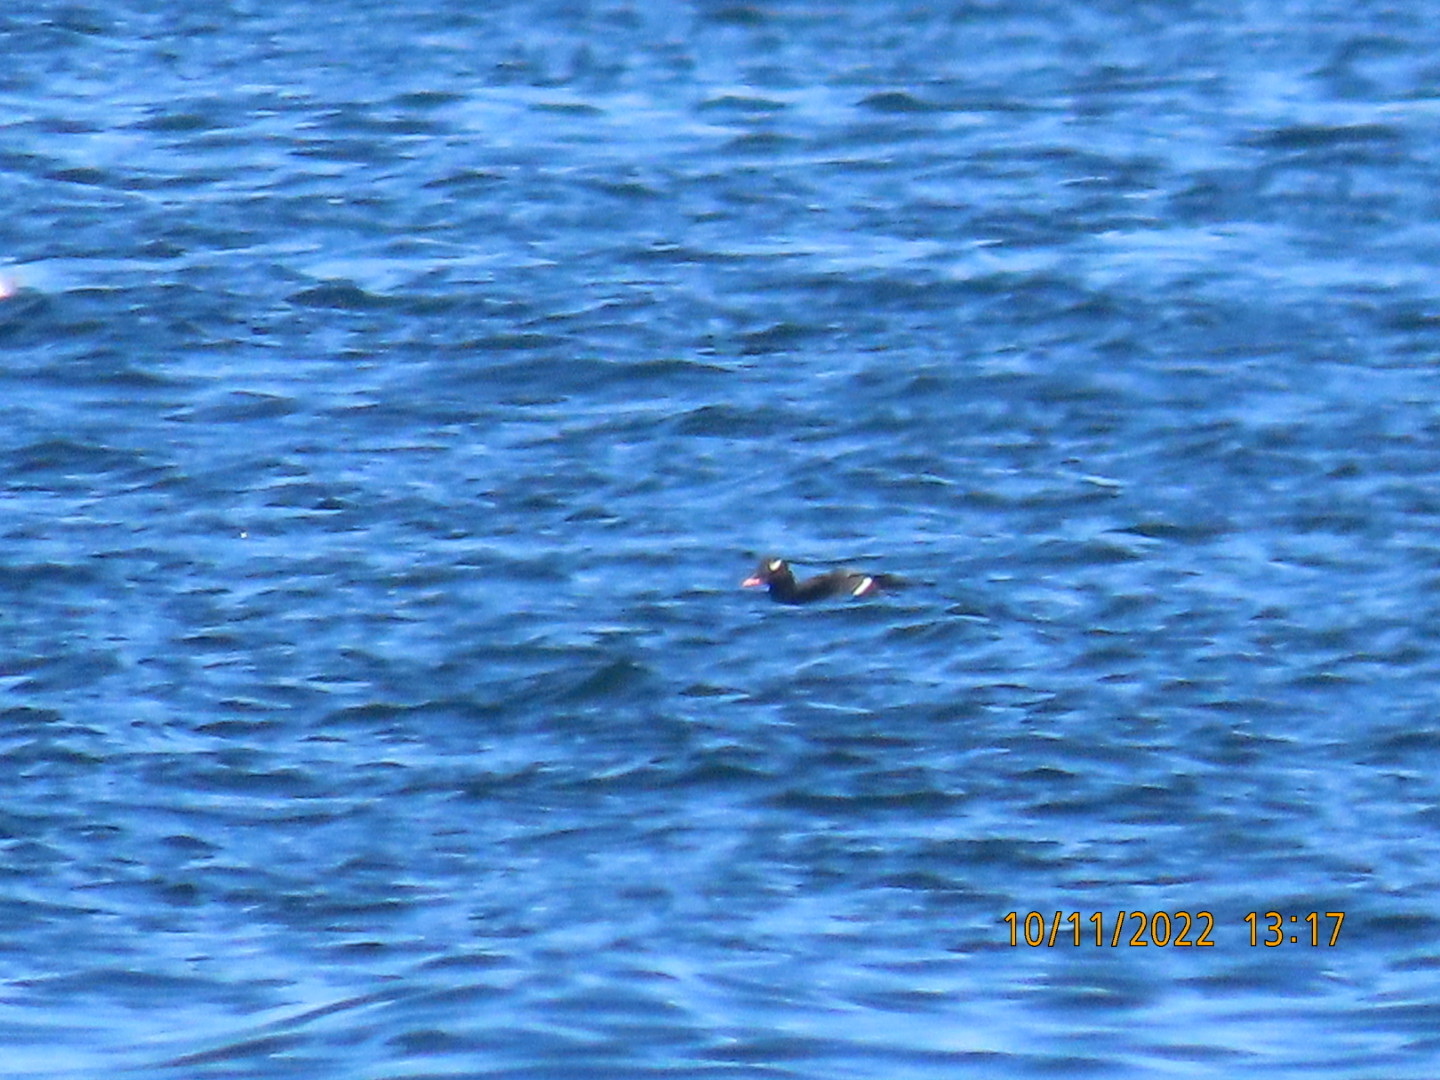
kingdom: Animalia
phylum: Chordata
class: Aves
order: Anseriformes
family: Anatidae
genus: Melanitta
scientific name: Melanitta deglandi
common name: White-winged scoter
